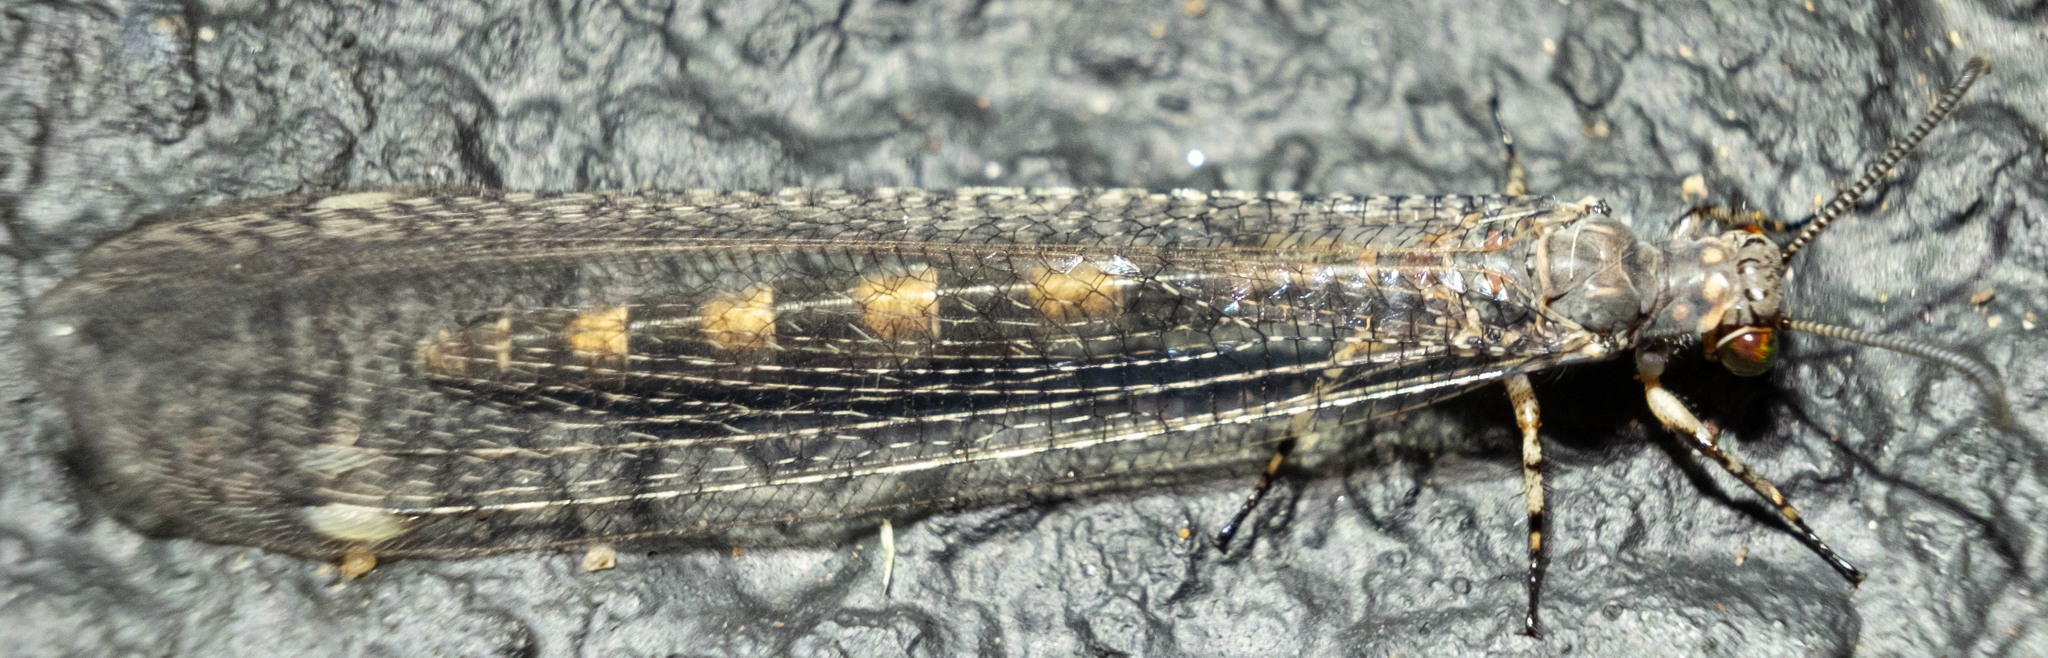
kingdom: Animalia
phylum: Arthropoda
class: Insecta
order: Neuroptera
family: Myrmeleontidae
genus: Myrmeleon
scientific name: Myrmeleon immaculatus
